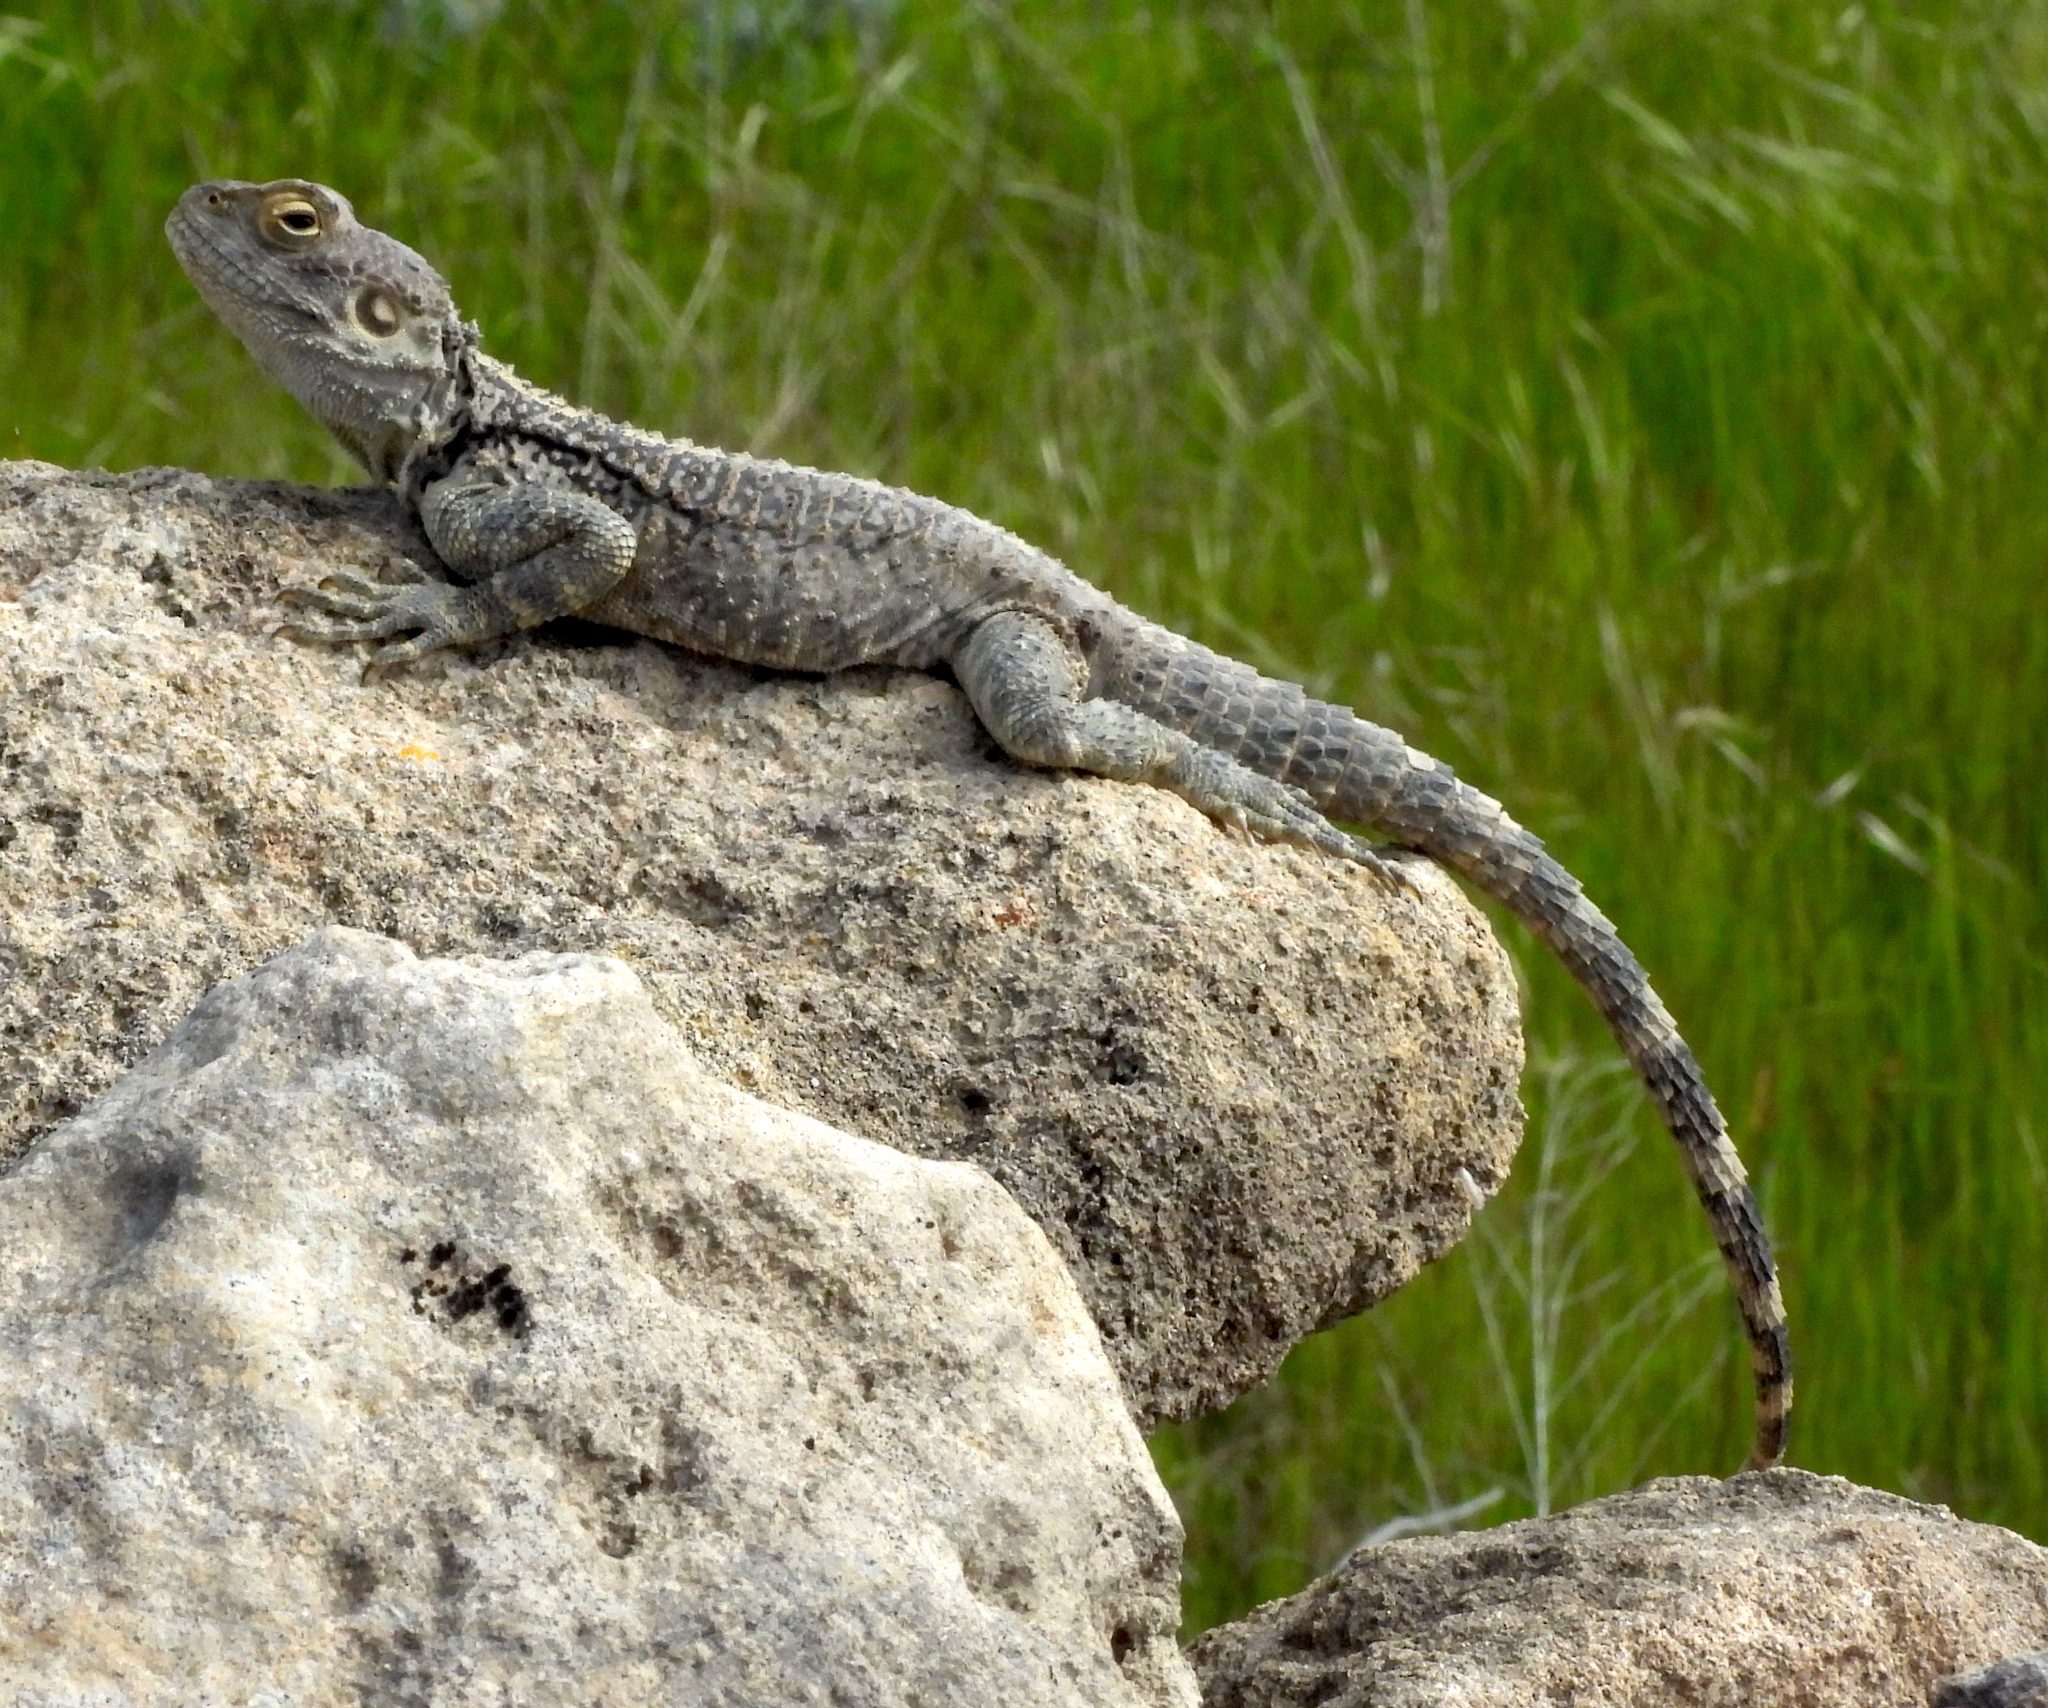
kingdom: Animalia
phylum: Chordata
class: Squamata
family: Agamidae
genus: Laudakia
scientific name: Laudakia
